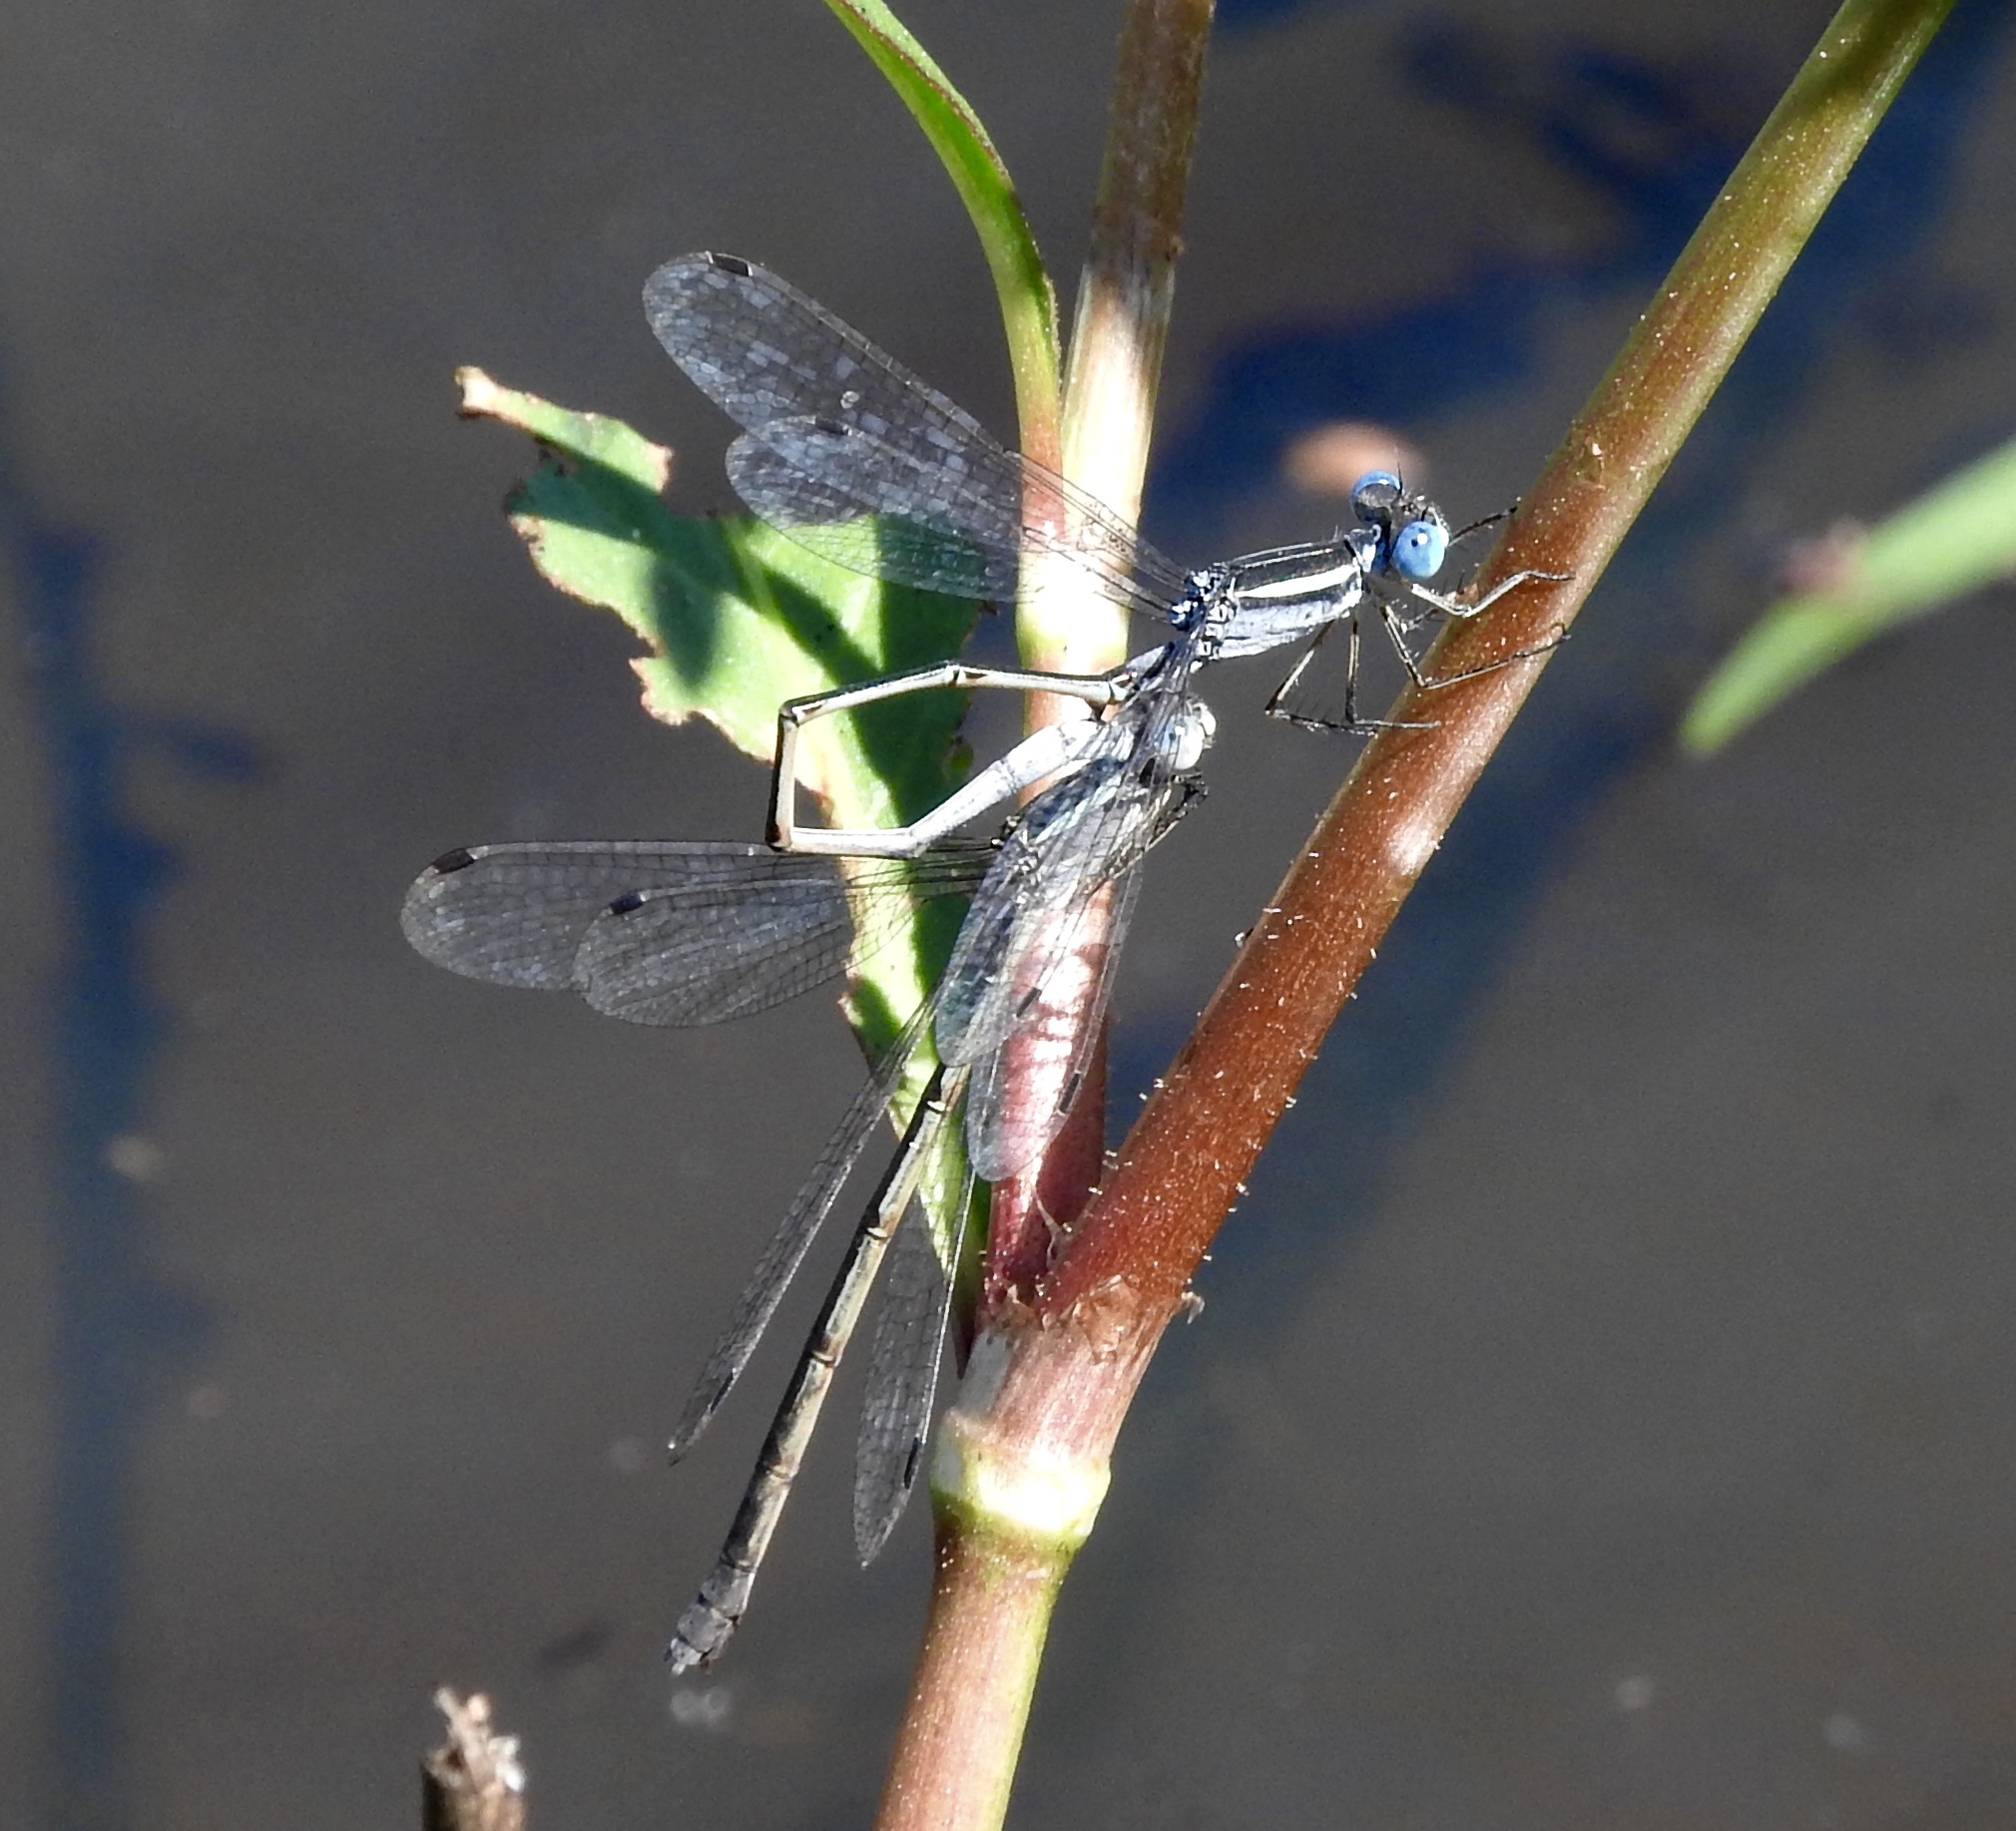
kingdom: Animalia
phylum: Arthropoda
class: Insecta
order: Odonata
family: Lestidae
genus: Lestes
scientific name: Lestes alacer
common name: Plateau spreadwing
